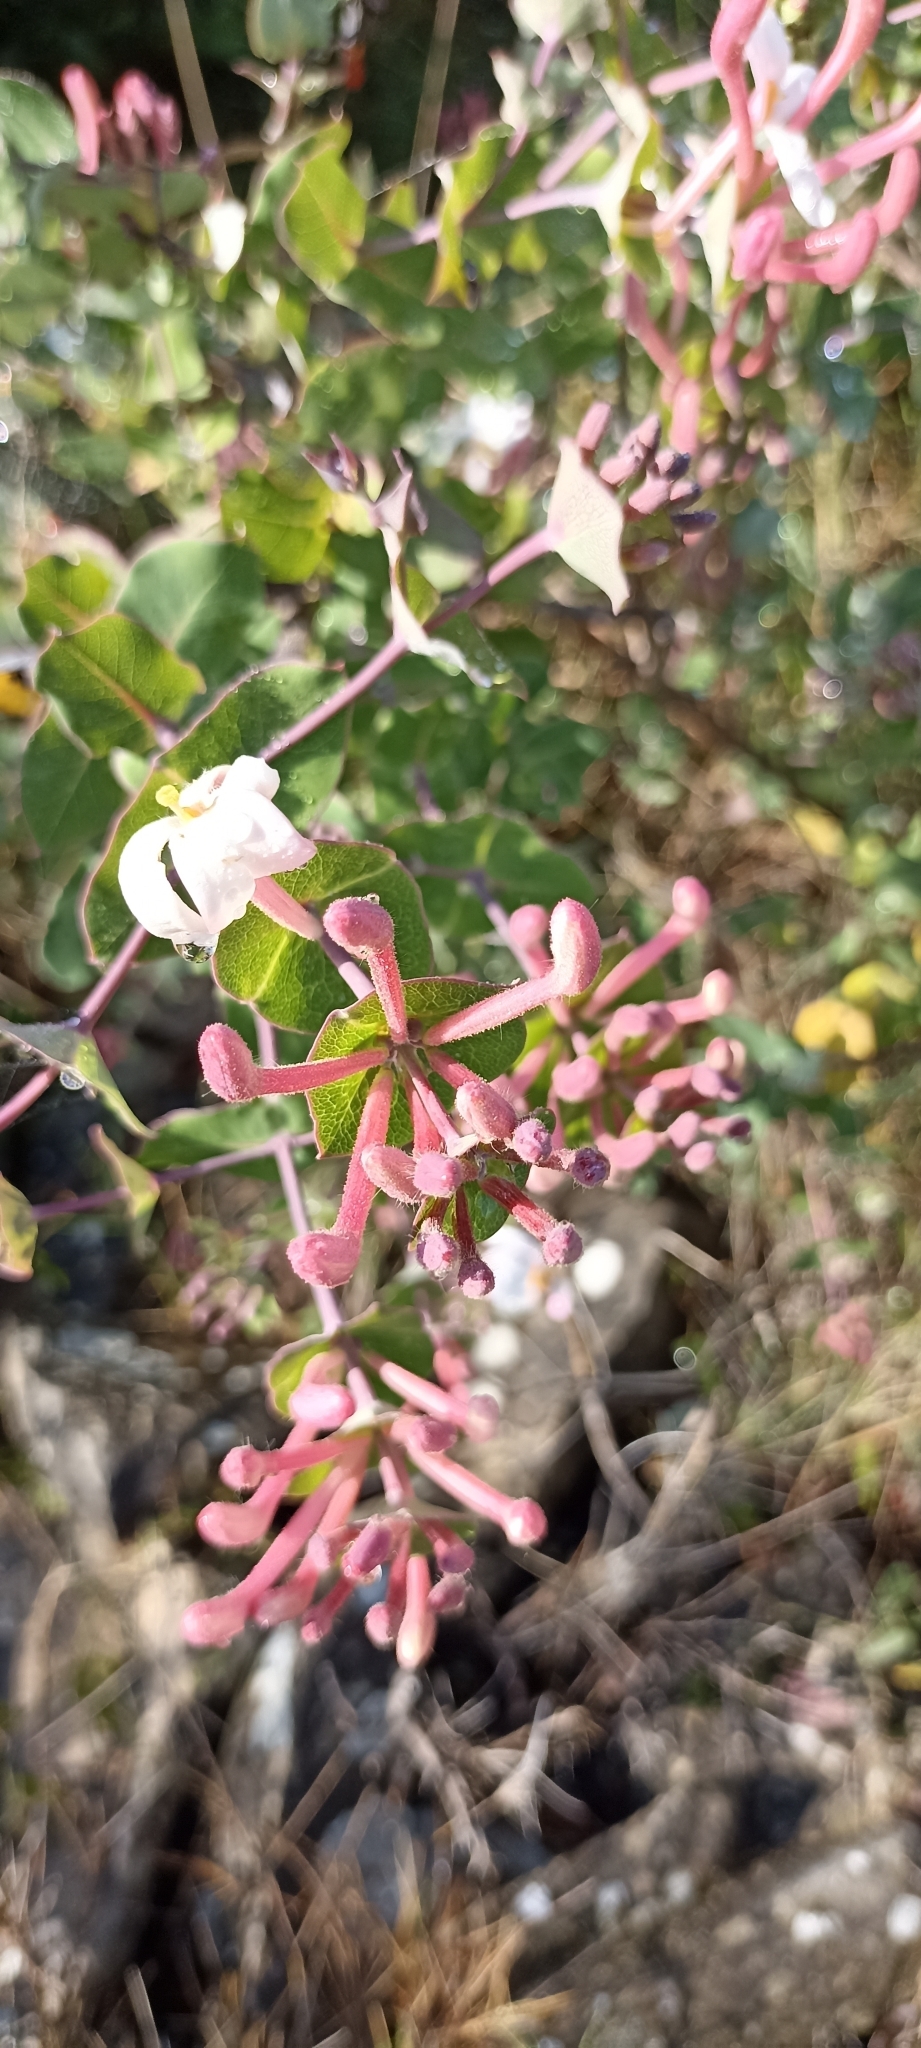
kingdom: Plantae
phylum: Tracheophyta
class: Magnoliopsida
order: Dipsacales
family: Caprifoliaceae
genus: Lonicera
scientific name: Lonicera implexa
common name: Minorca honeysuckle
